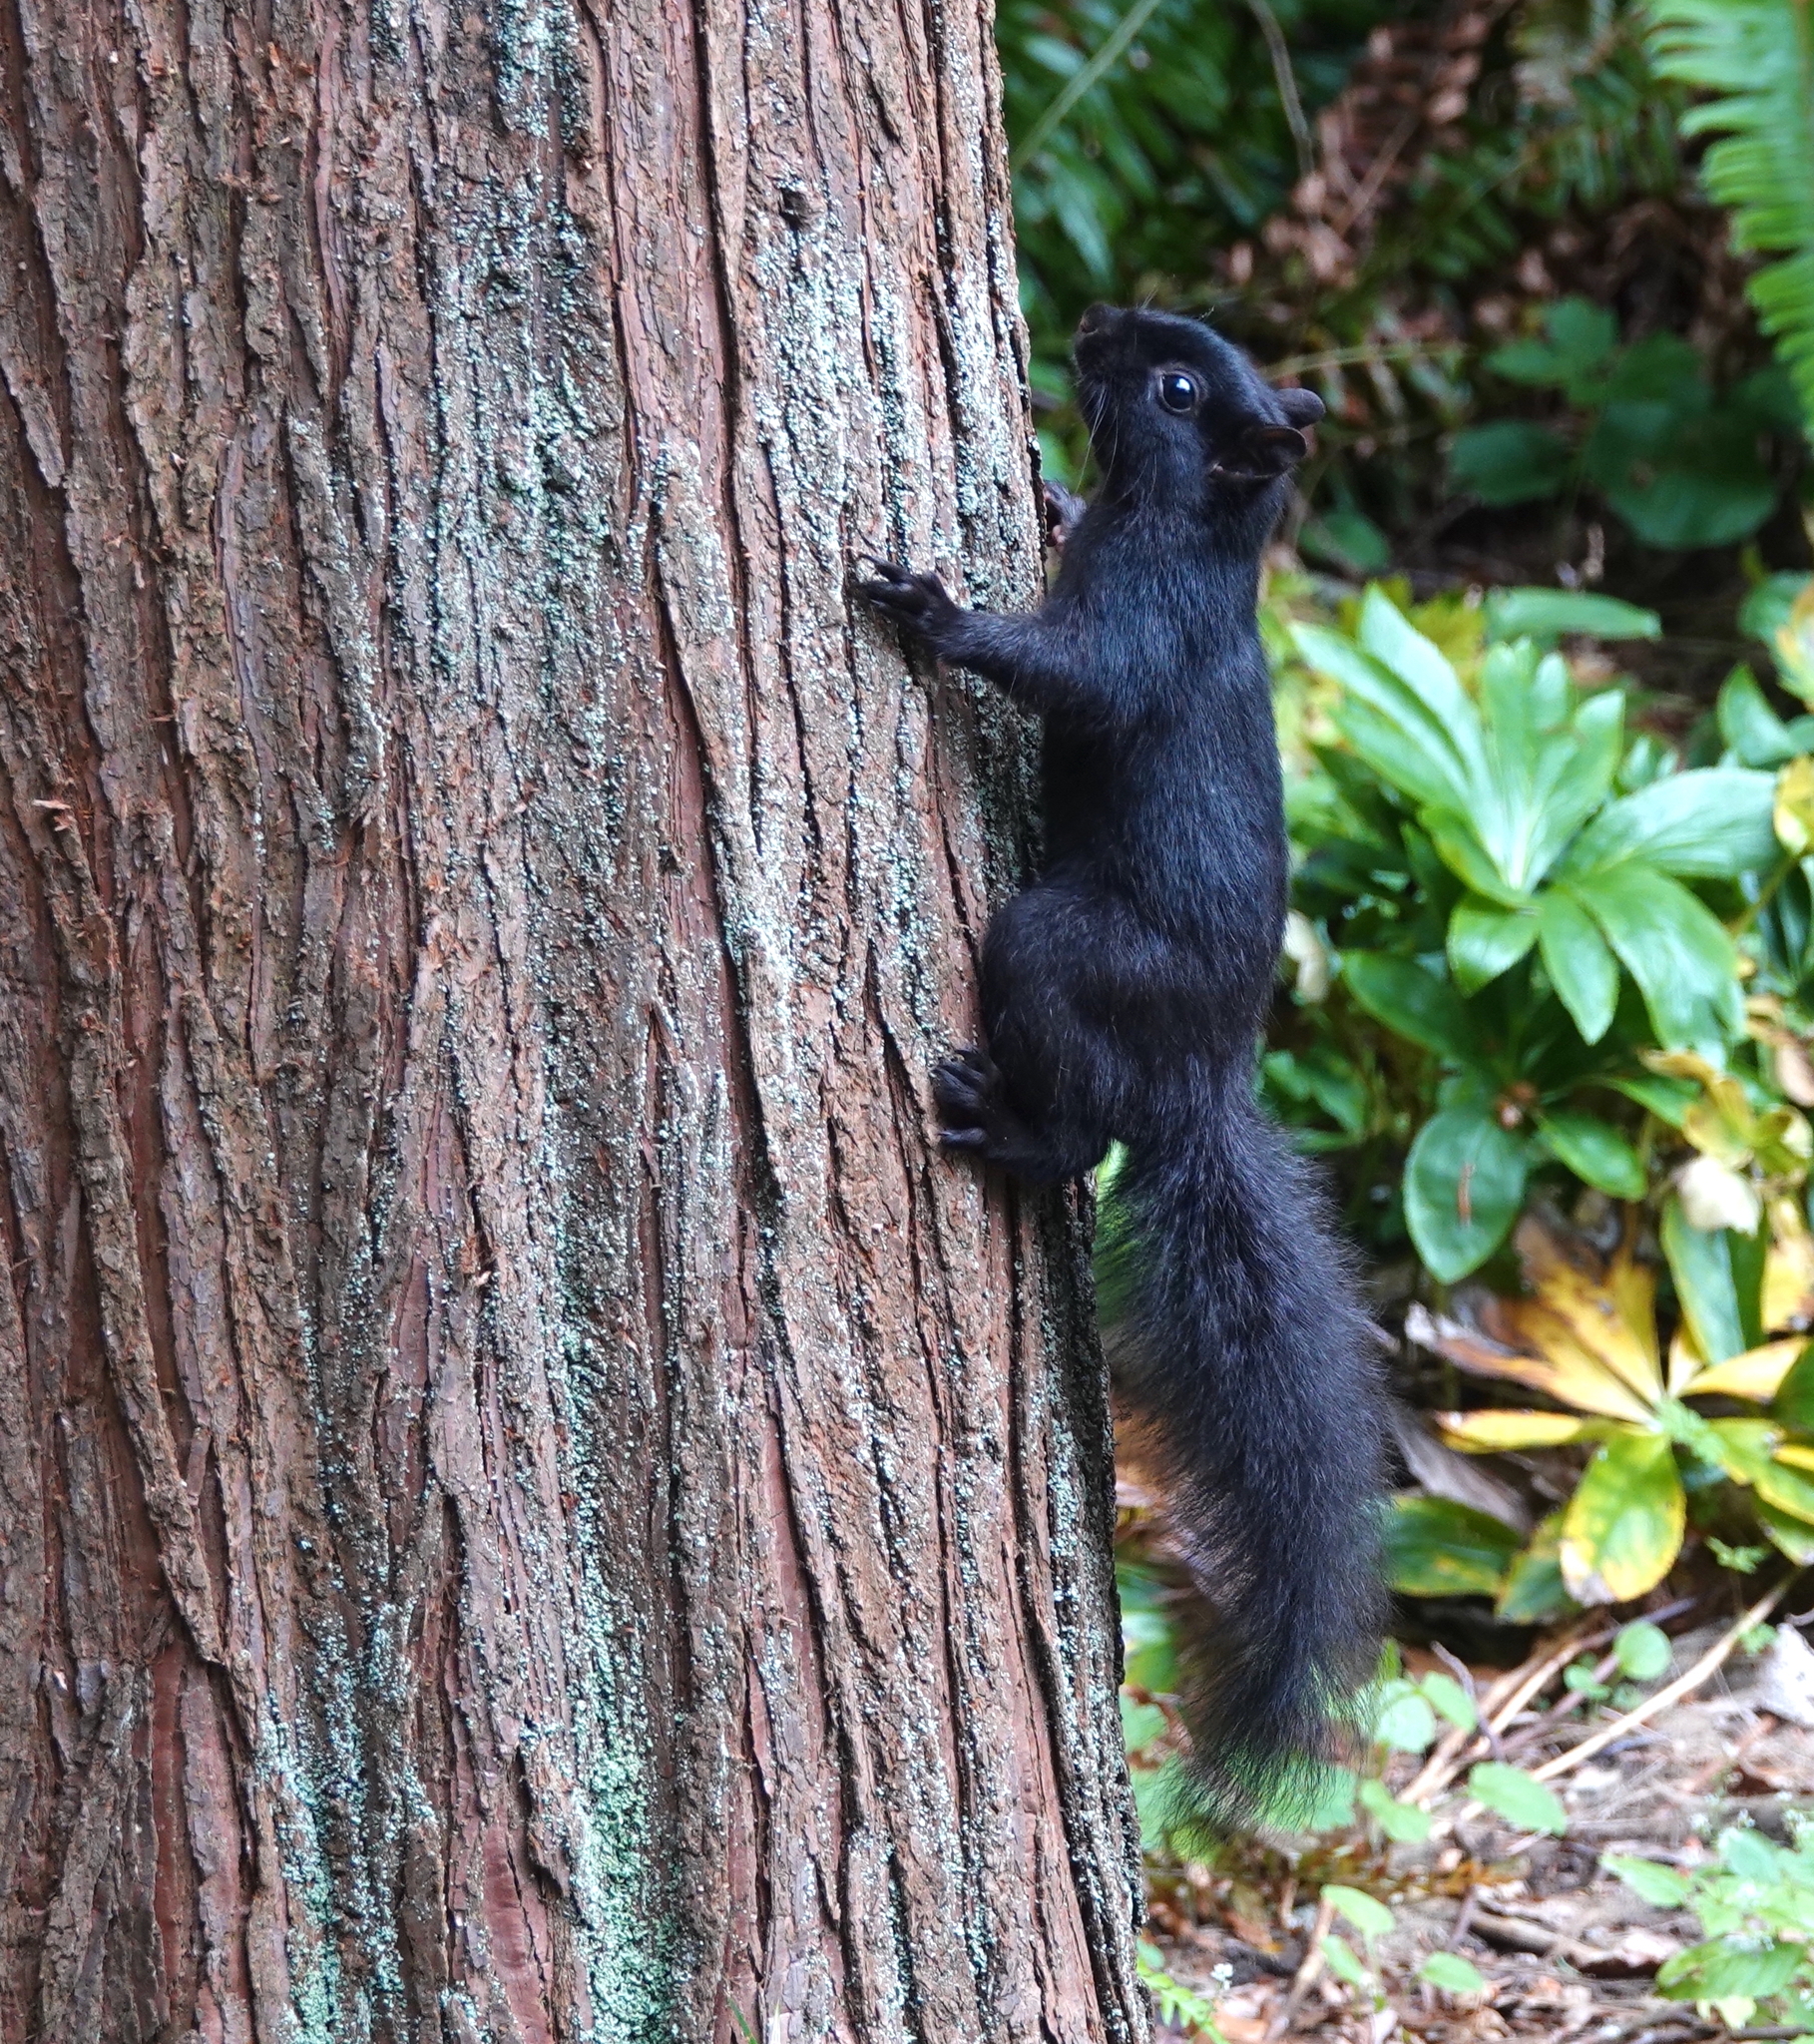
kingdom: Animalia
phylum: Chordata
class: Mammalia
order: Rodentia
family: Sciuridae
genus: Sciurus
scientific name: Sciurus carolinensis
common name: Eastern gray squirrel
